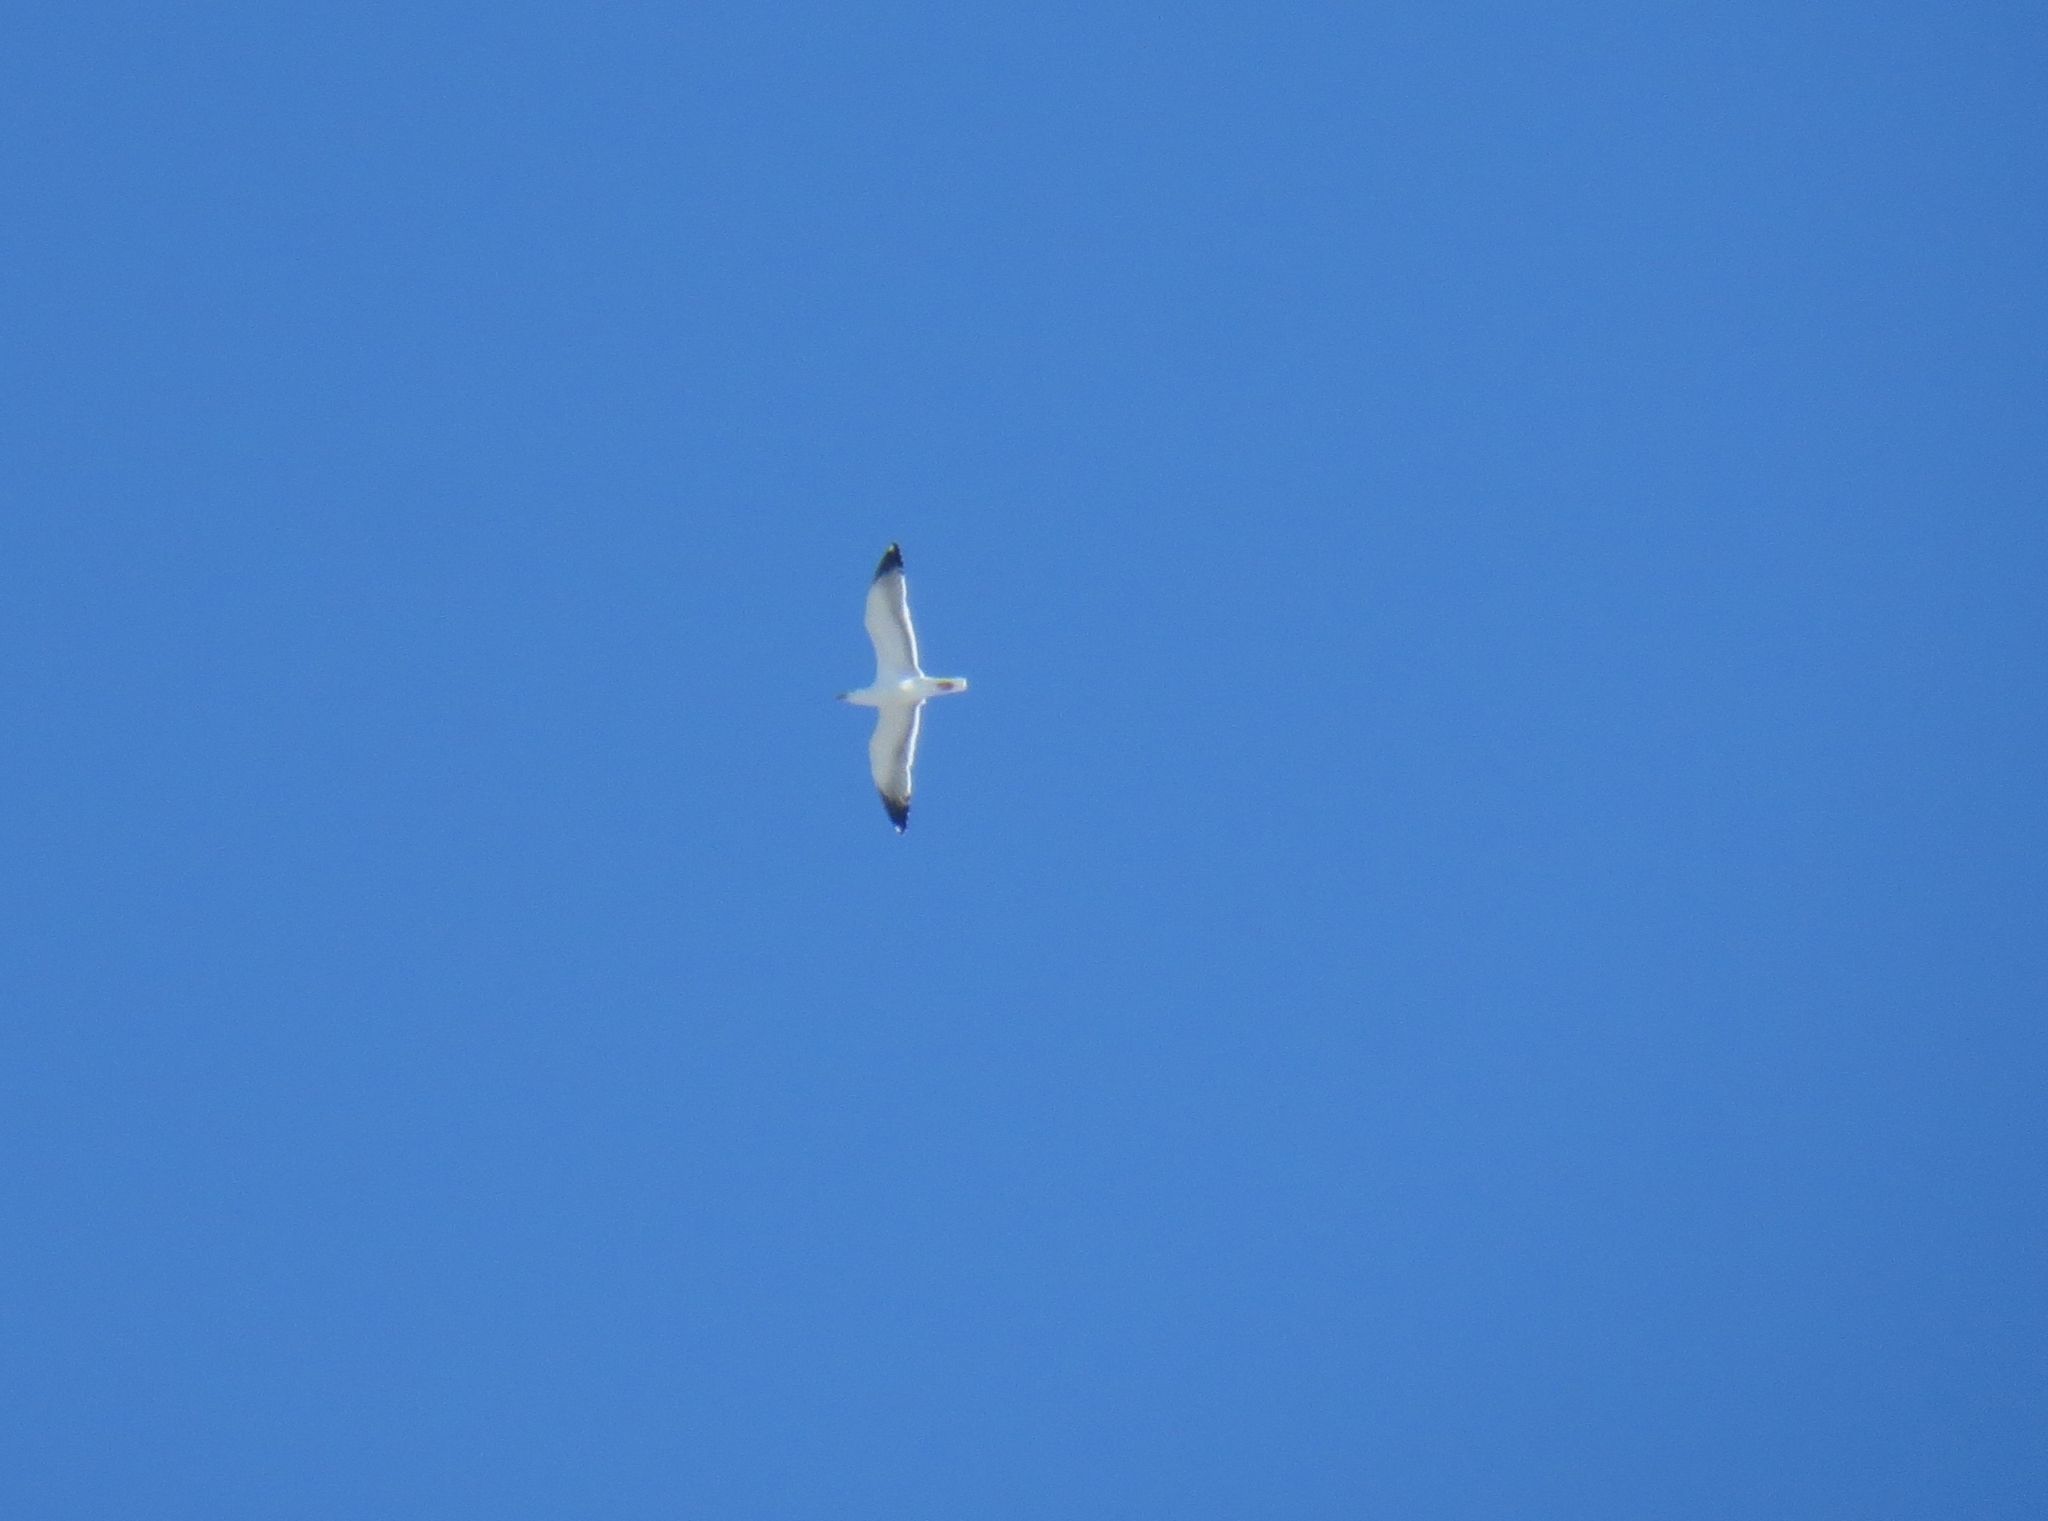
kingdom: Animalia
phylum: Chordata
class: Aves
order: Charadriiformes
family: Laridae
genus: Larus
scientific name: Larus fuscus
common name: Lesser black-backed gull
